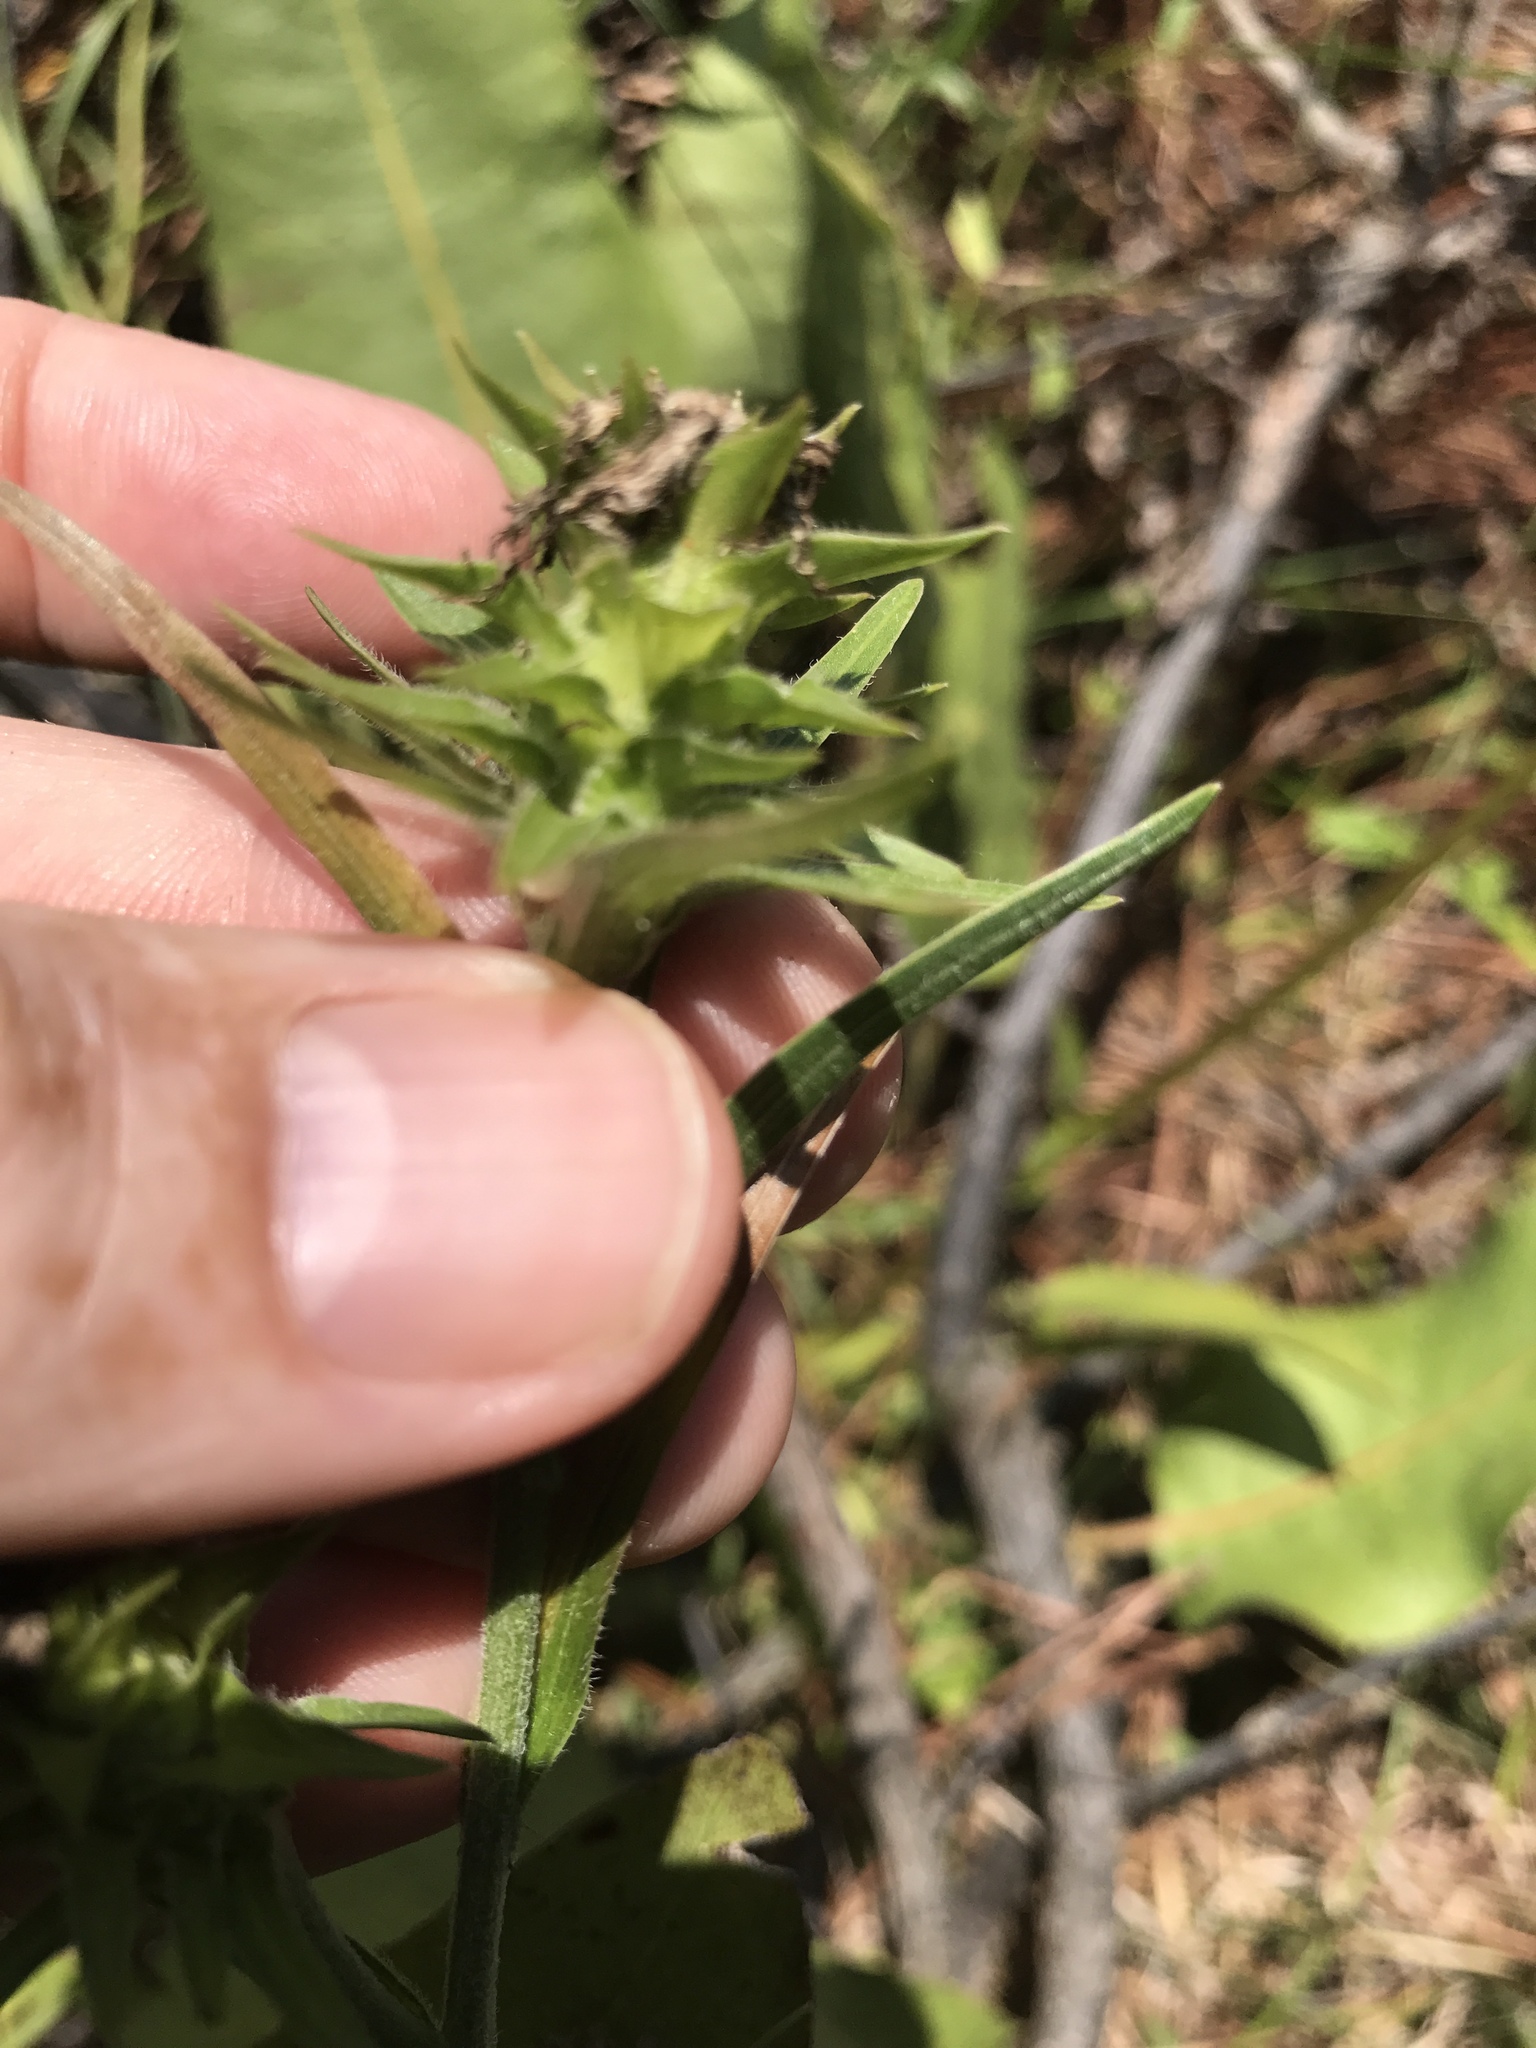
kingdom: Plantae
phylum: Tracheophyta
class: Magnoliopsida
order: Asterales
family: Asteraceae
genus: Liatris
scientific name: Liatris squarrosa
